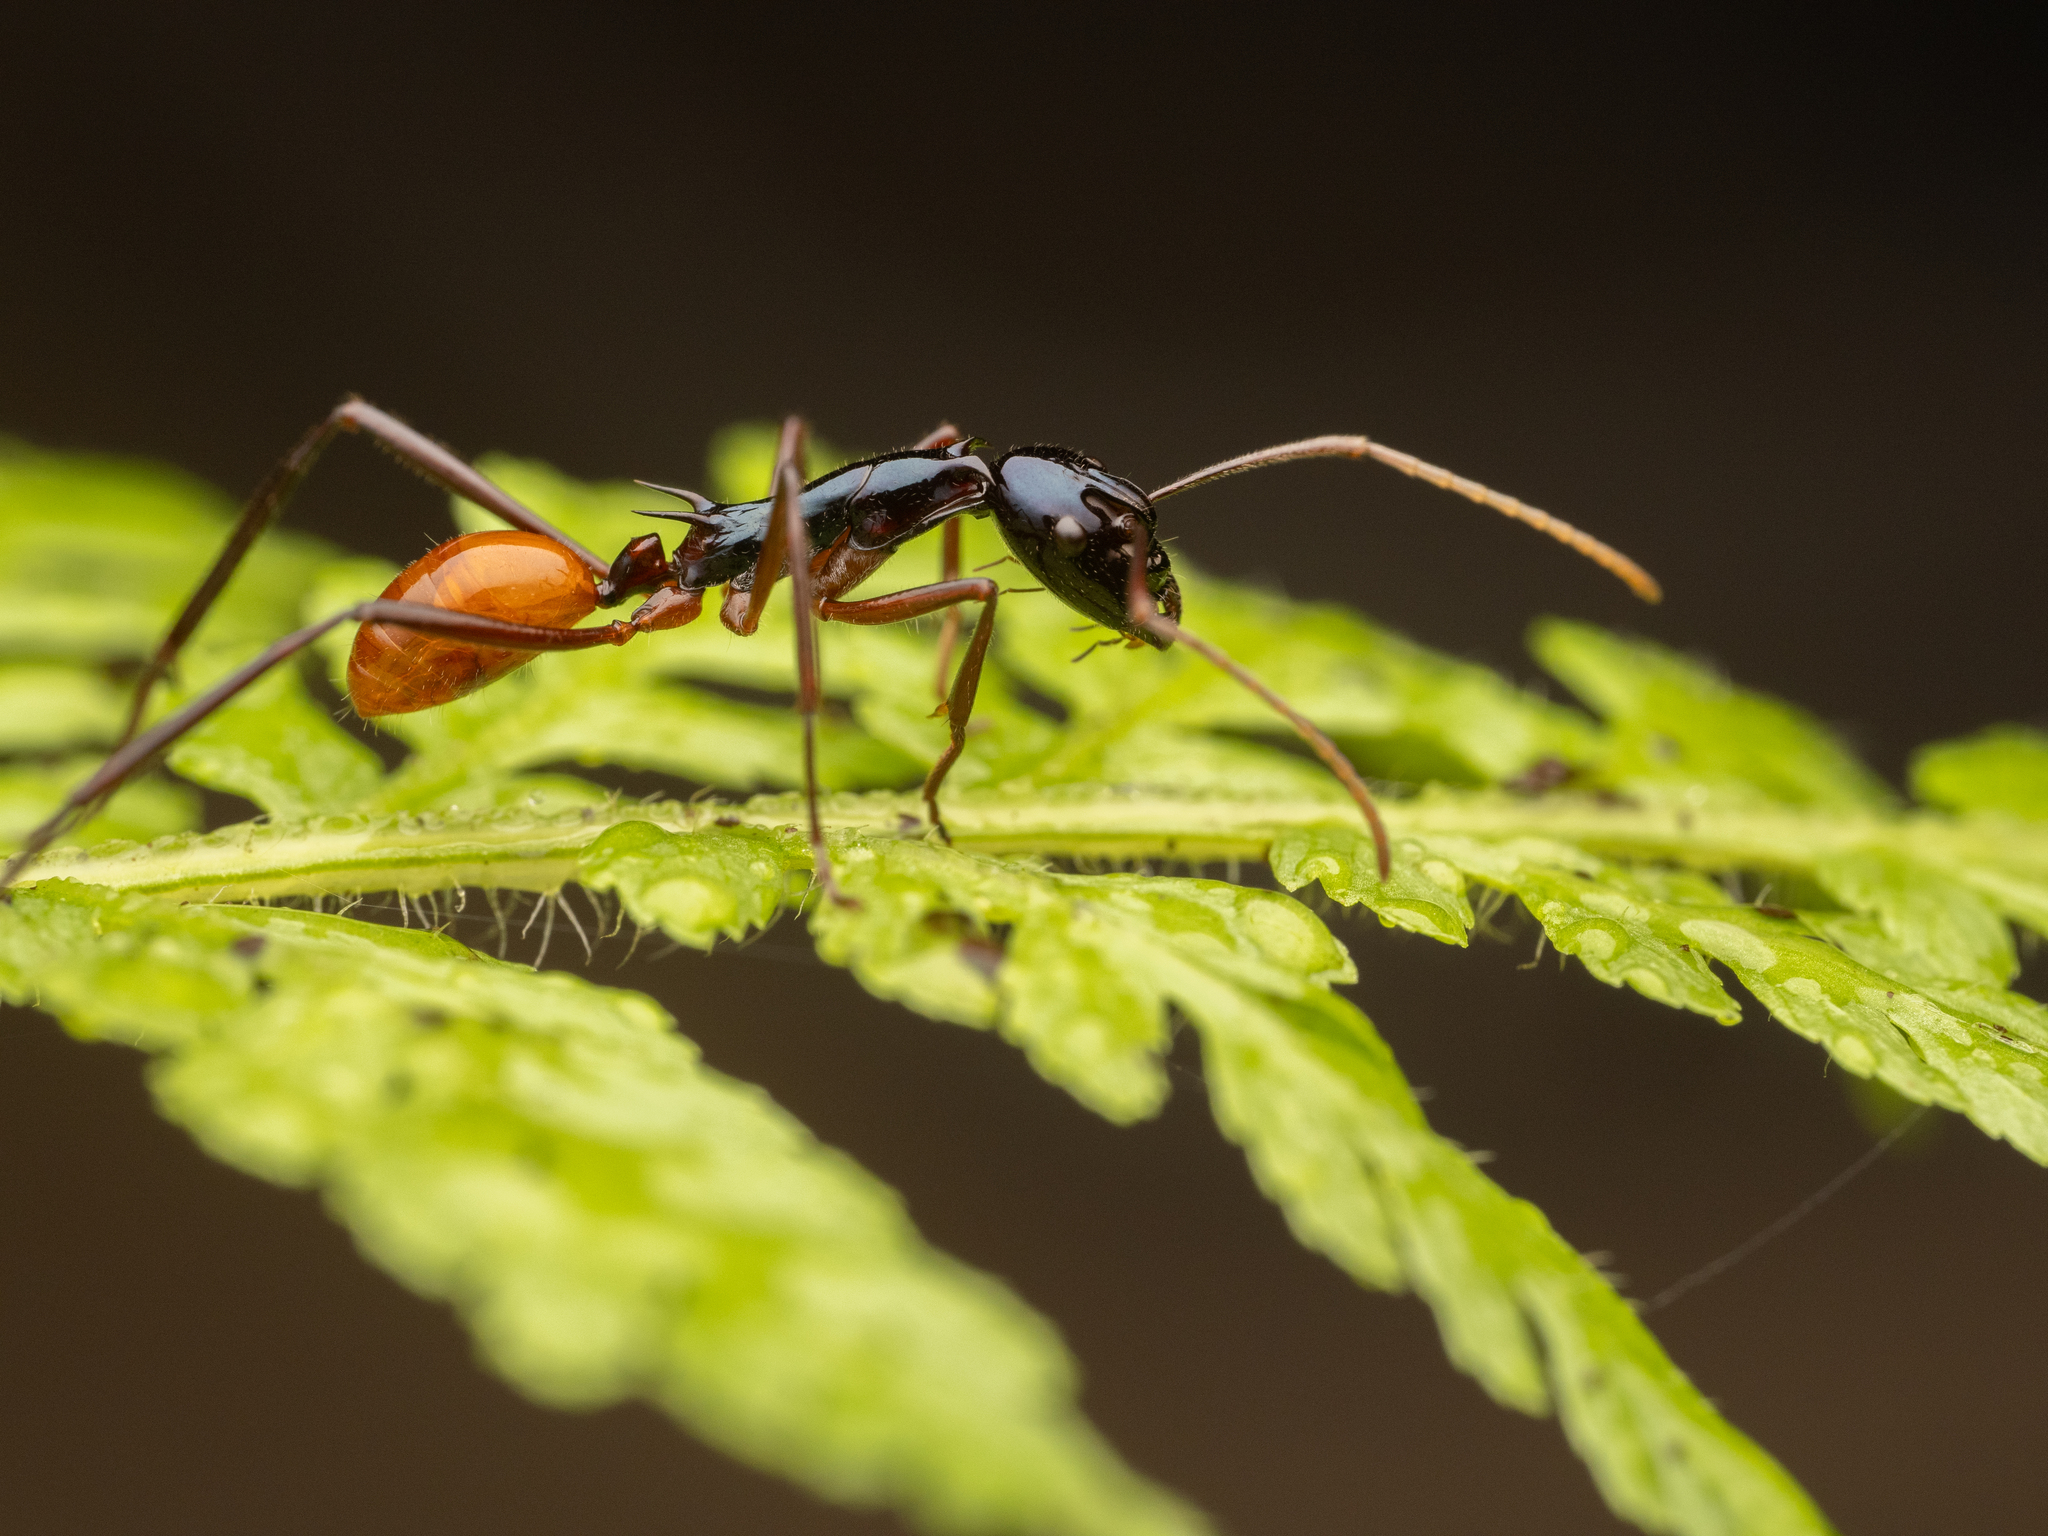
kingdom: Animalia
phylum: Arthropoda
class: Insecta
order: Hymenoptera
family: Formicidae
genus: Polyrhachis
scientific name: Polyrhachis croceiventris
